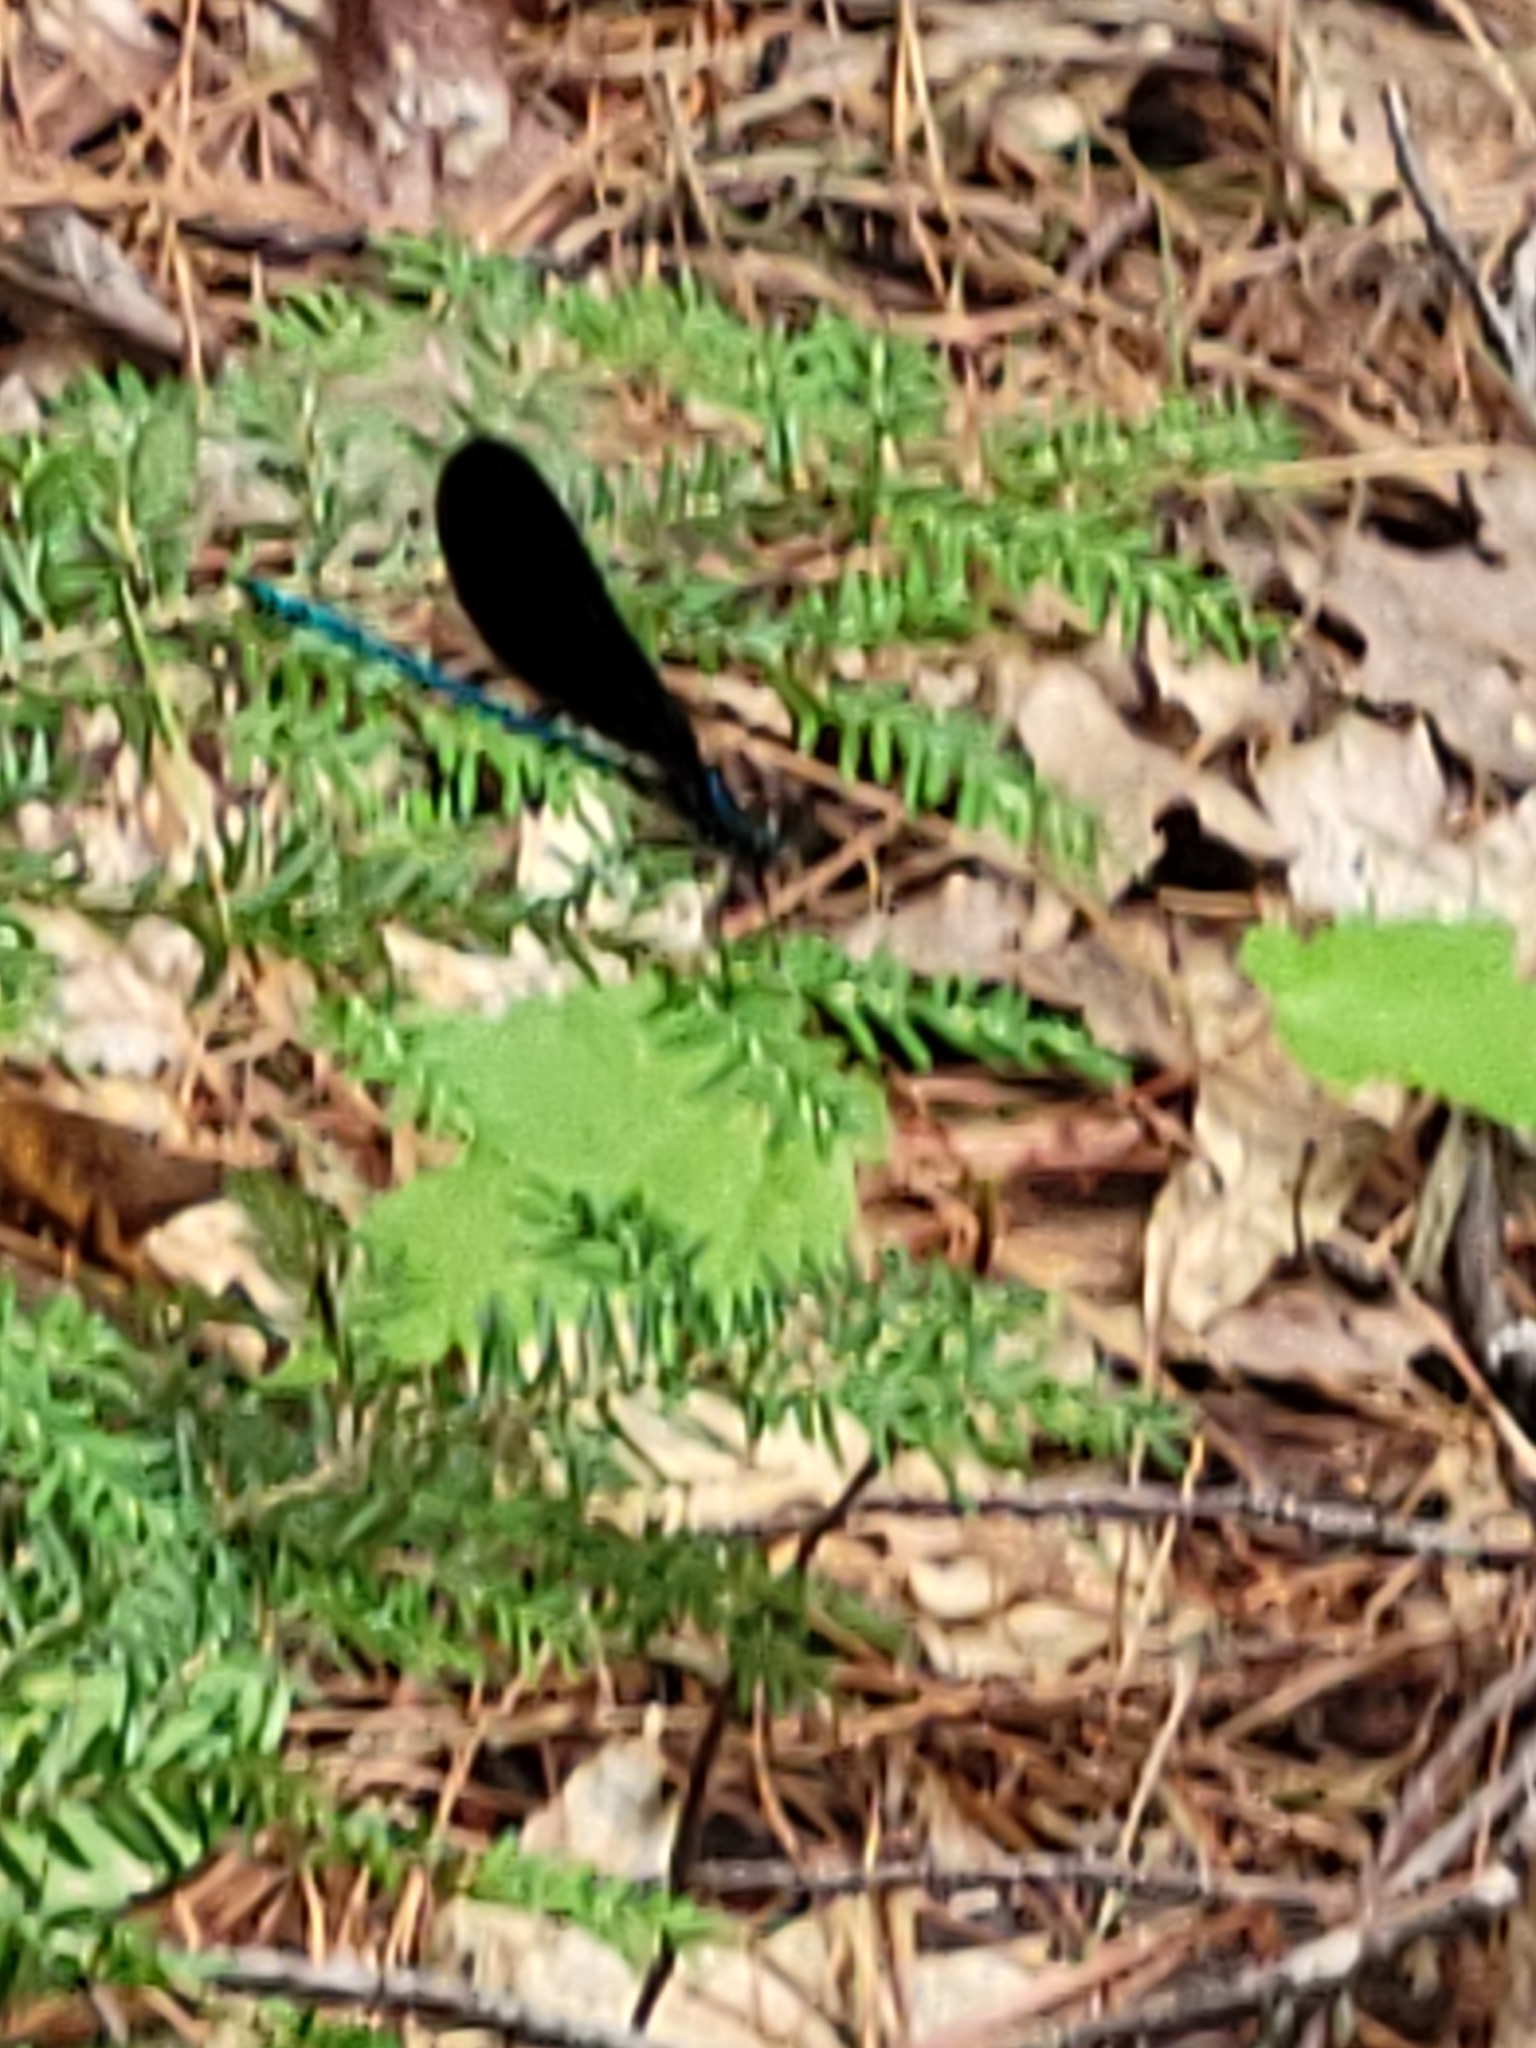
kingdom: Animalia
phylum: Arthropoda
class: Insecta
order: Odonata
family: Calopterygidae
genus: Calopteryx
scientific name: Calopteryx maculata
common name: Ebony jewelwing
